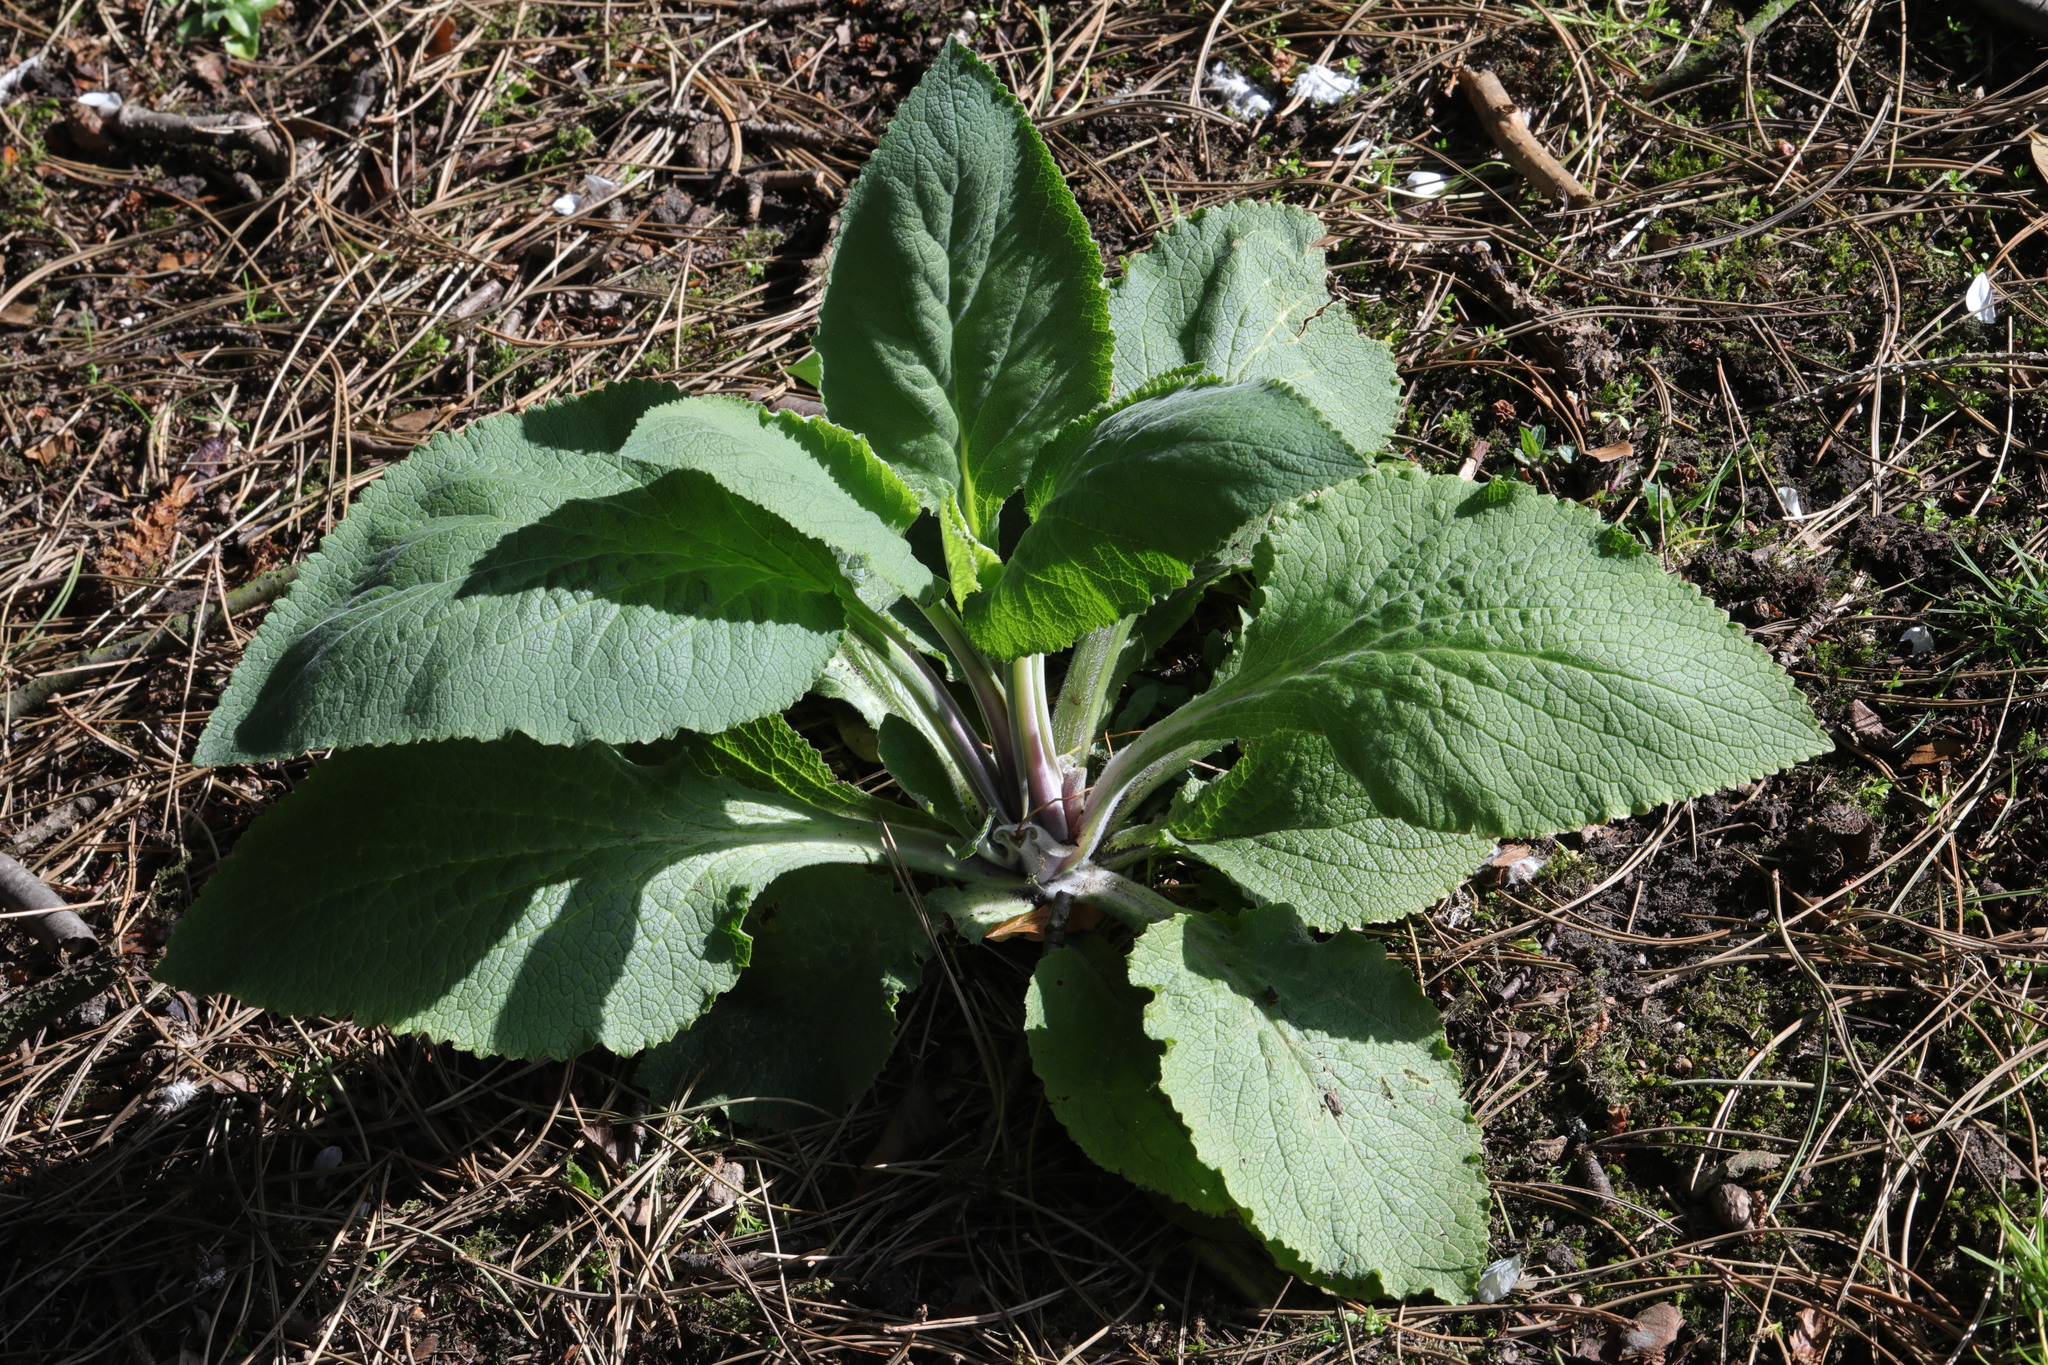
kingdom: Plantae
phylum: Tracheophyta
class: Magnoliopsida
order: Lamiales
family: Plantaginaceae
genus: Digitalis
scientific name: Digitalis purpurea
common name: Foxglove
